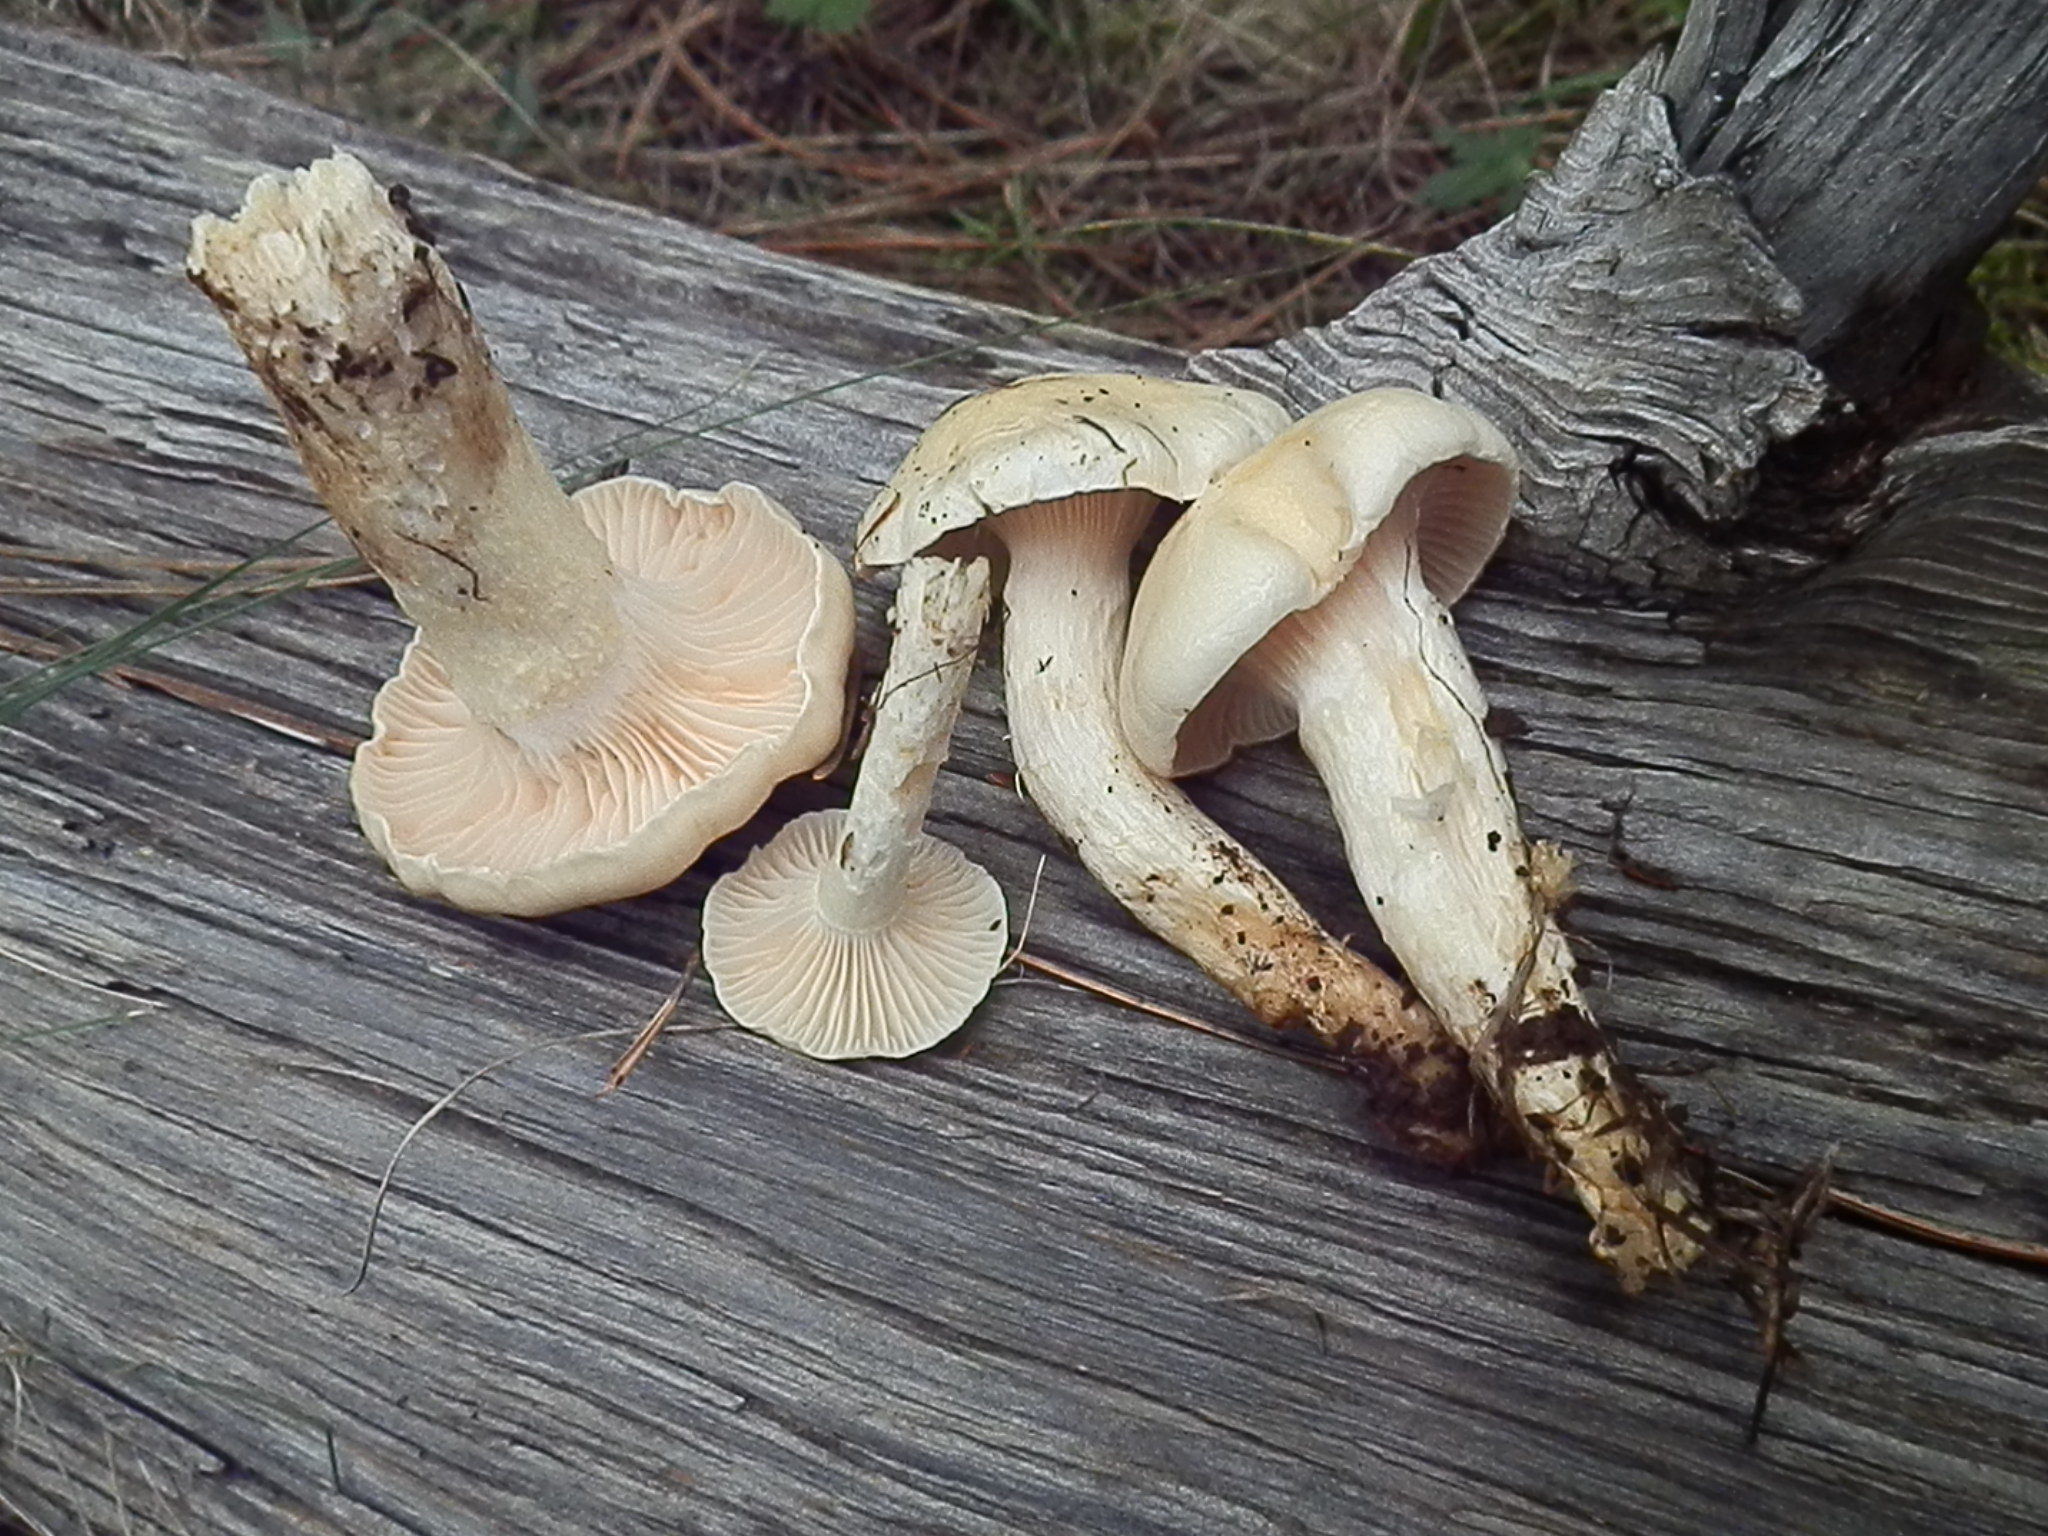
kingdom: Fungi
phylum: Basidiomycota
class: Agaricomycetes
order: Agaricales
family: Hygrophoraceae
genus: Hygrophorus
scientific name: Hygrophorus ligatus
